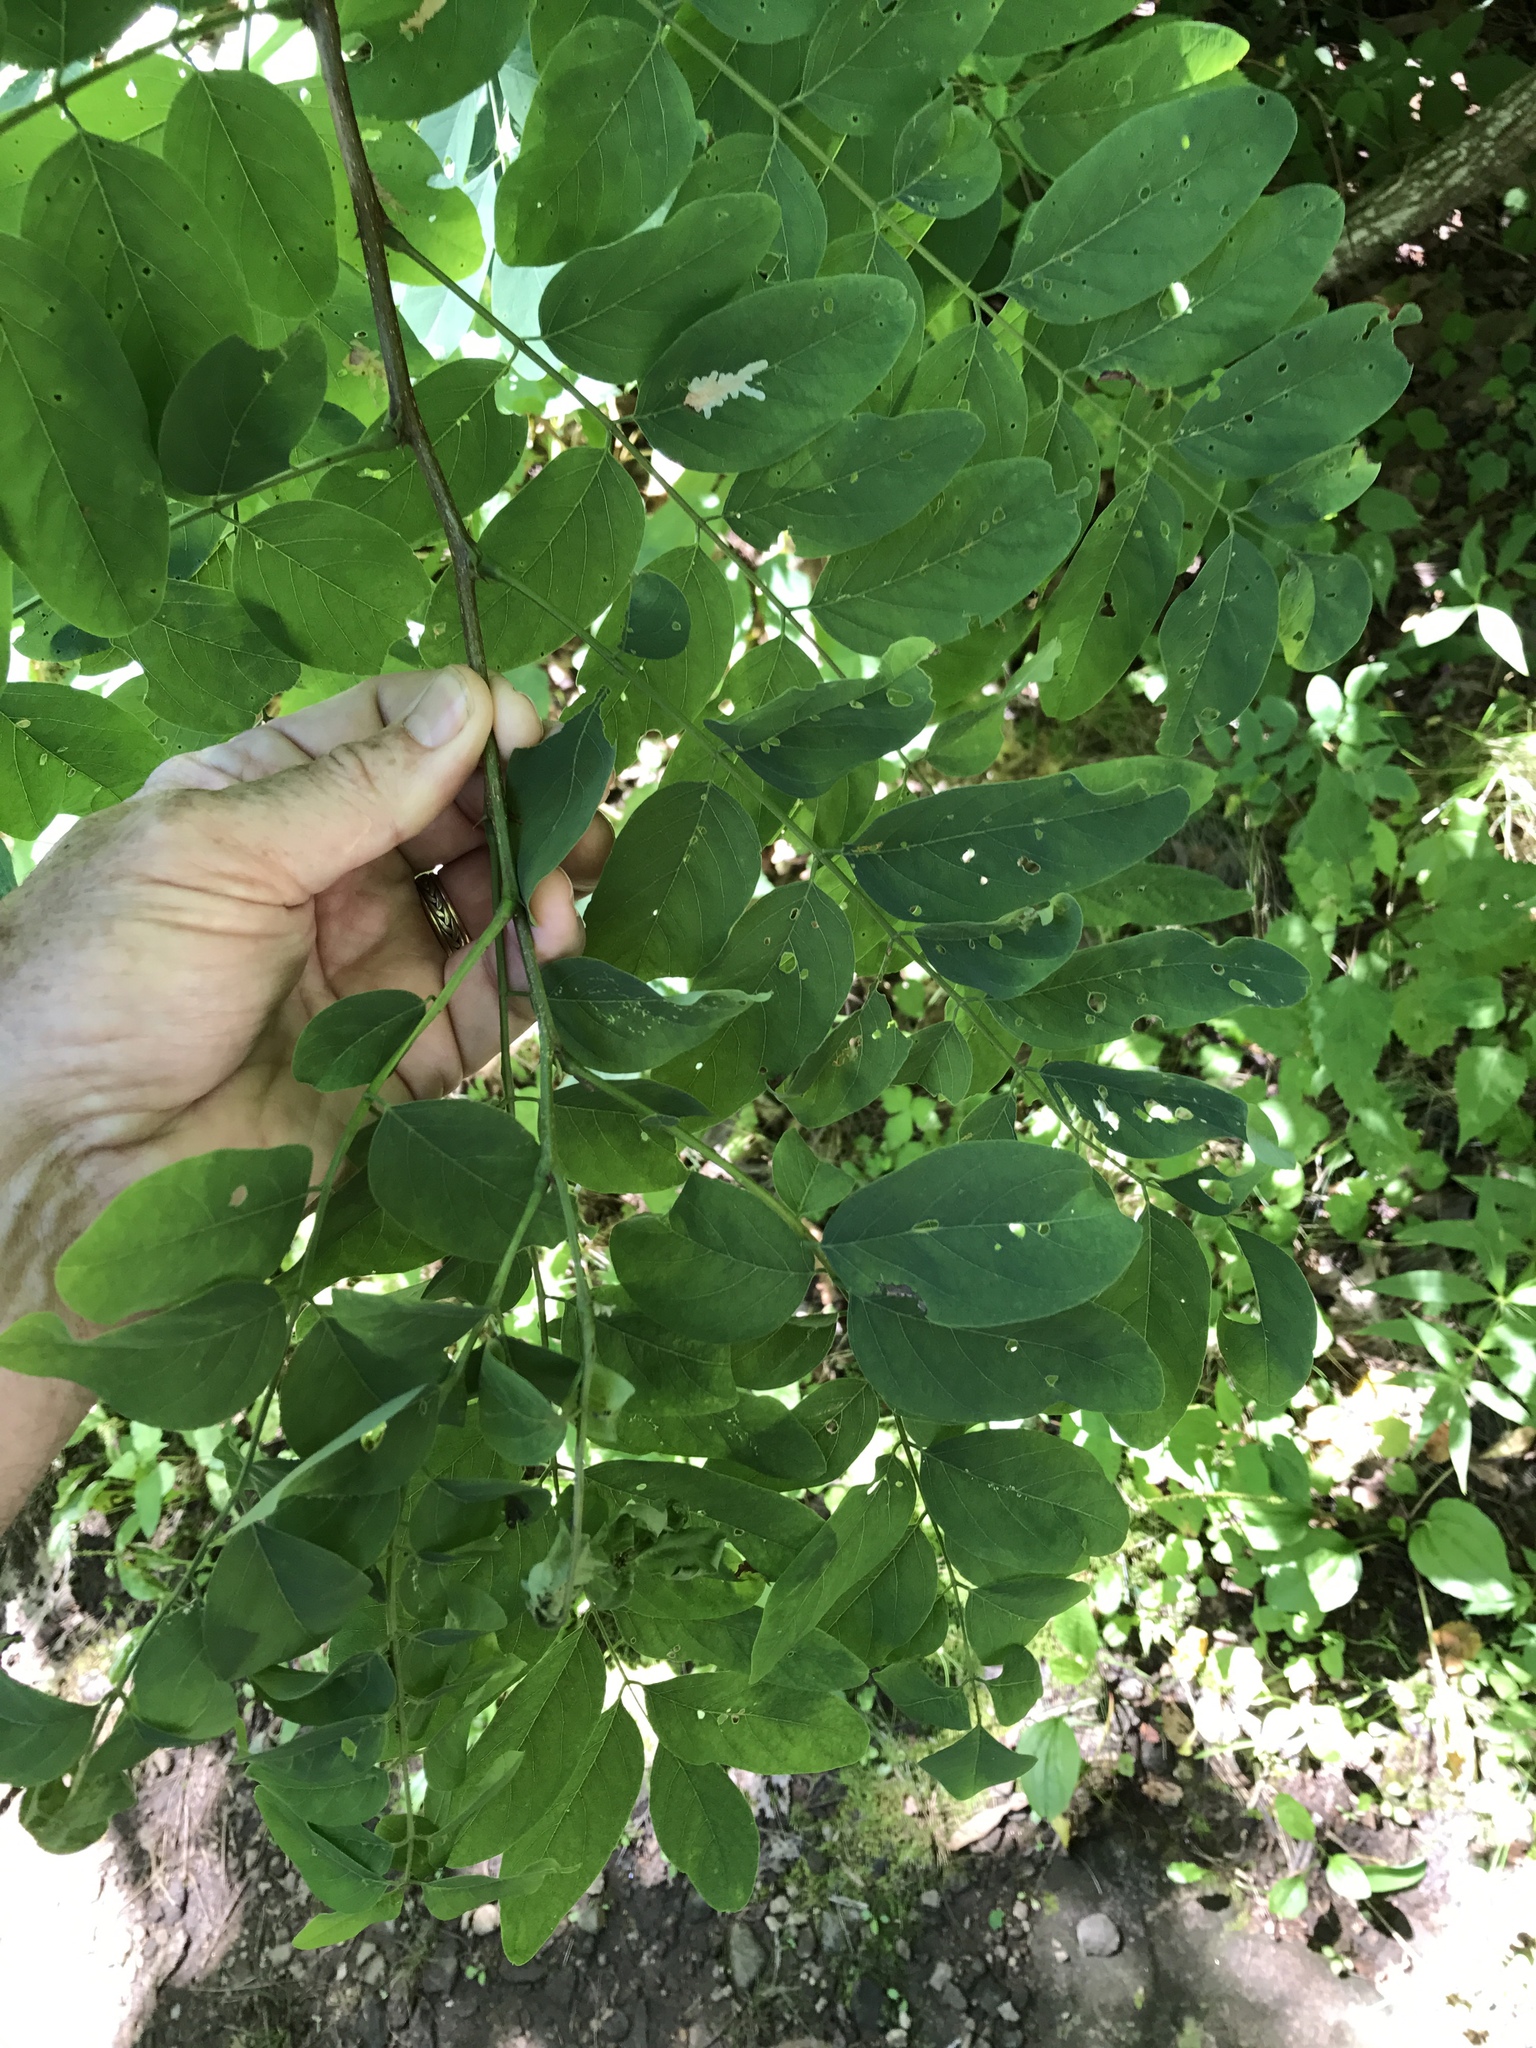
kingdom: Plantae
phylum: Tracheophyta
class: Magnoliopsida
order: Fabales
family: Fabaceae
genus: Robinia
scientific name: Robinia pseudoacacia
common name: Black locust
